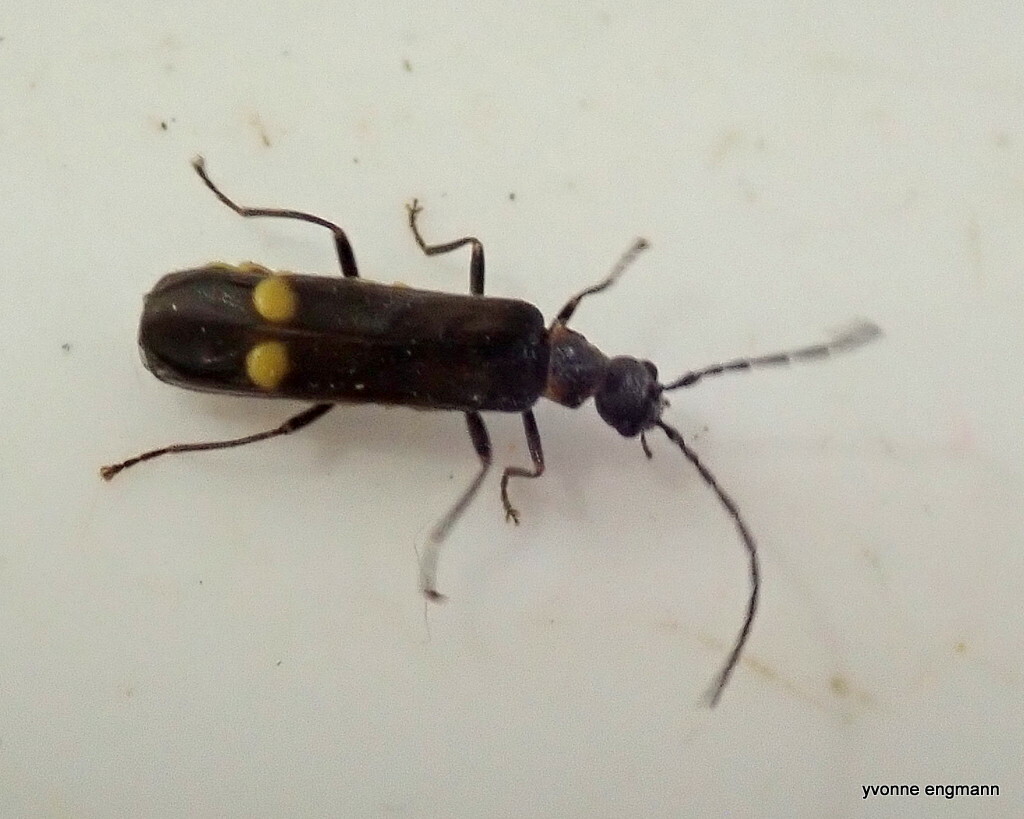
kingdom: Animalia
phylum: Arthropoda
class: Insecta
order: Coleoptera
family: Cantharidae
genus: Malthodes
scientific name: Malthodes
